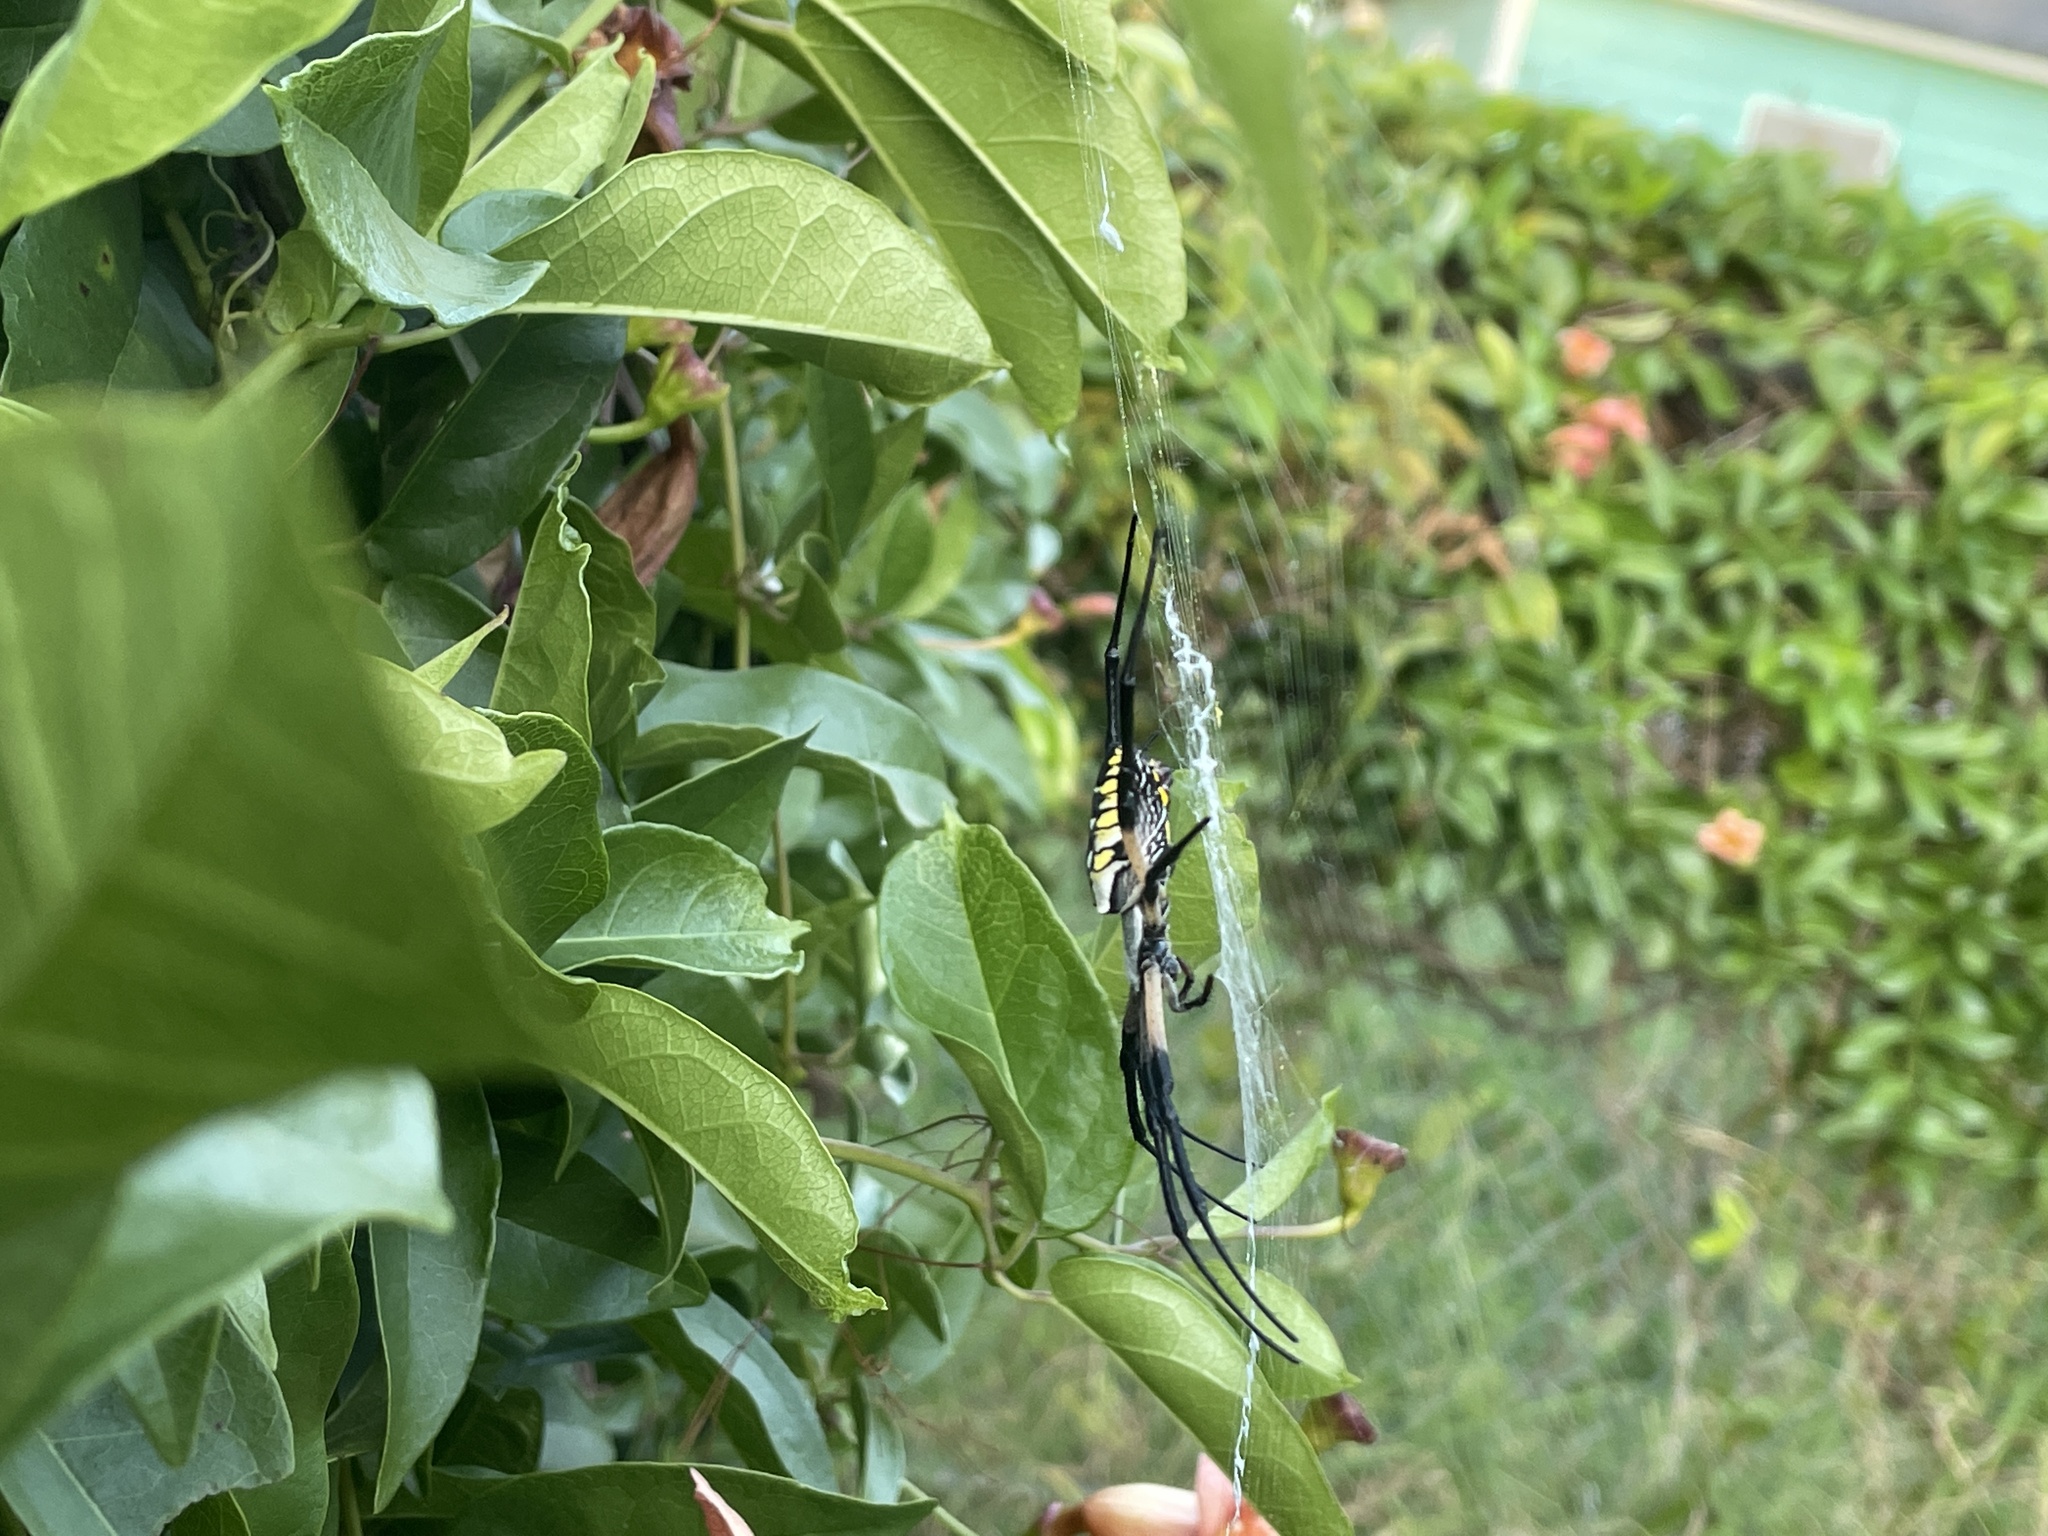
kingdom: Animalia
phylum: Arthropoda
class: Arachnida
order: Araneae
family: Araneidae
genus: Argiope
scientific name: Argiope aurantia
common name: Orb weavers
